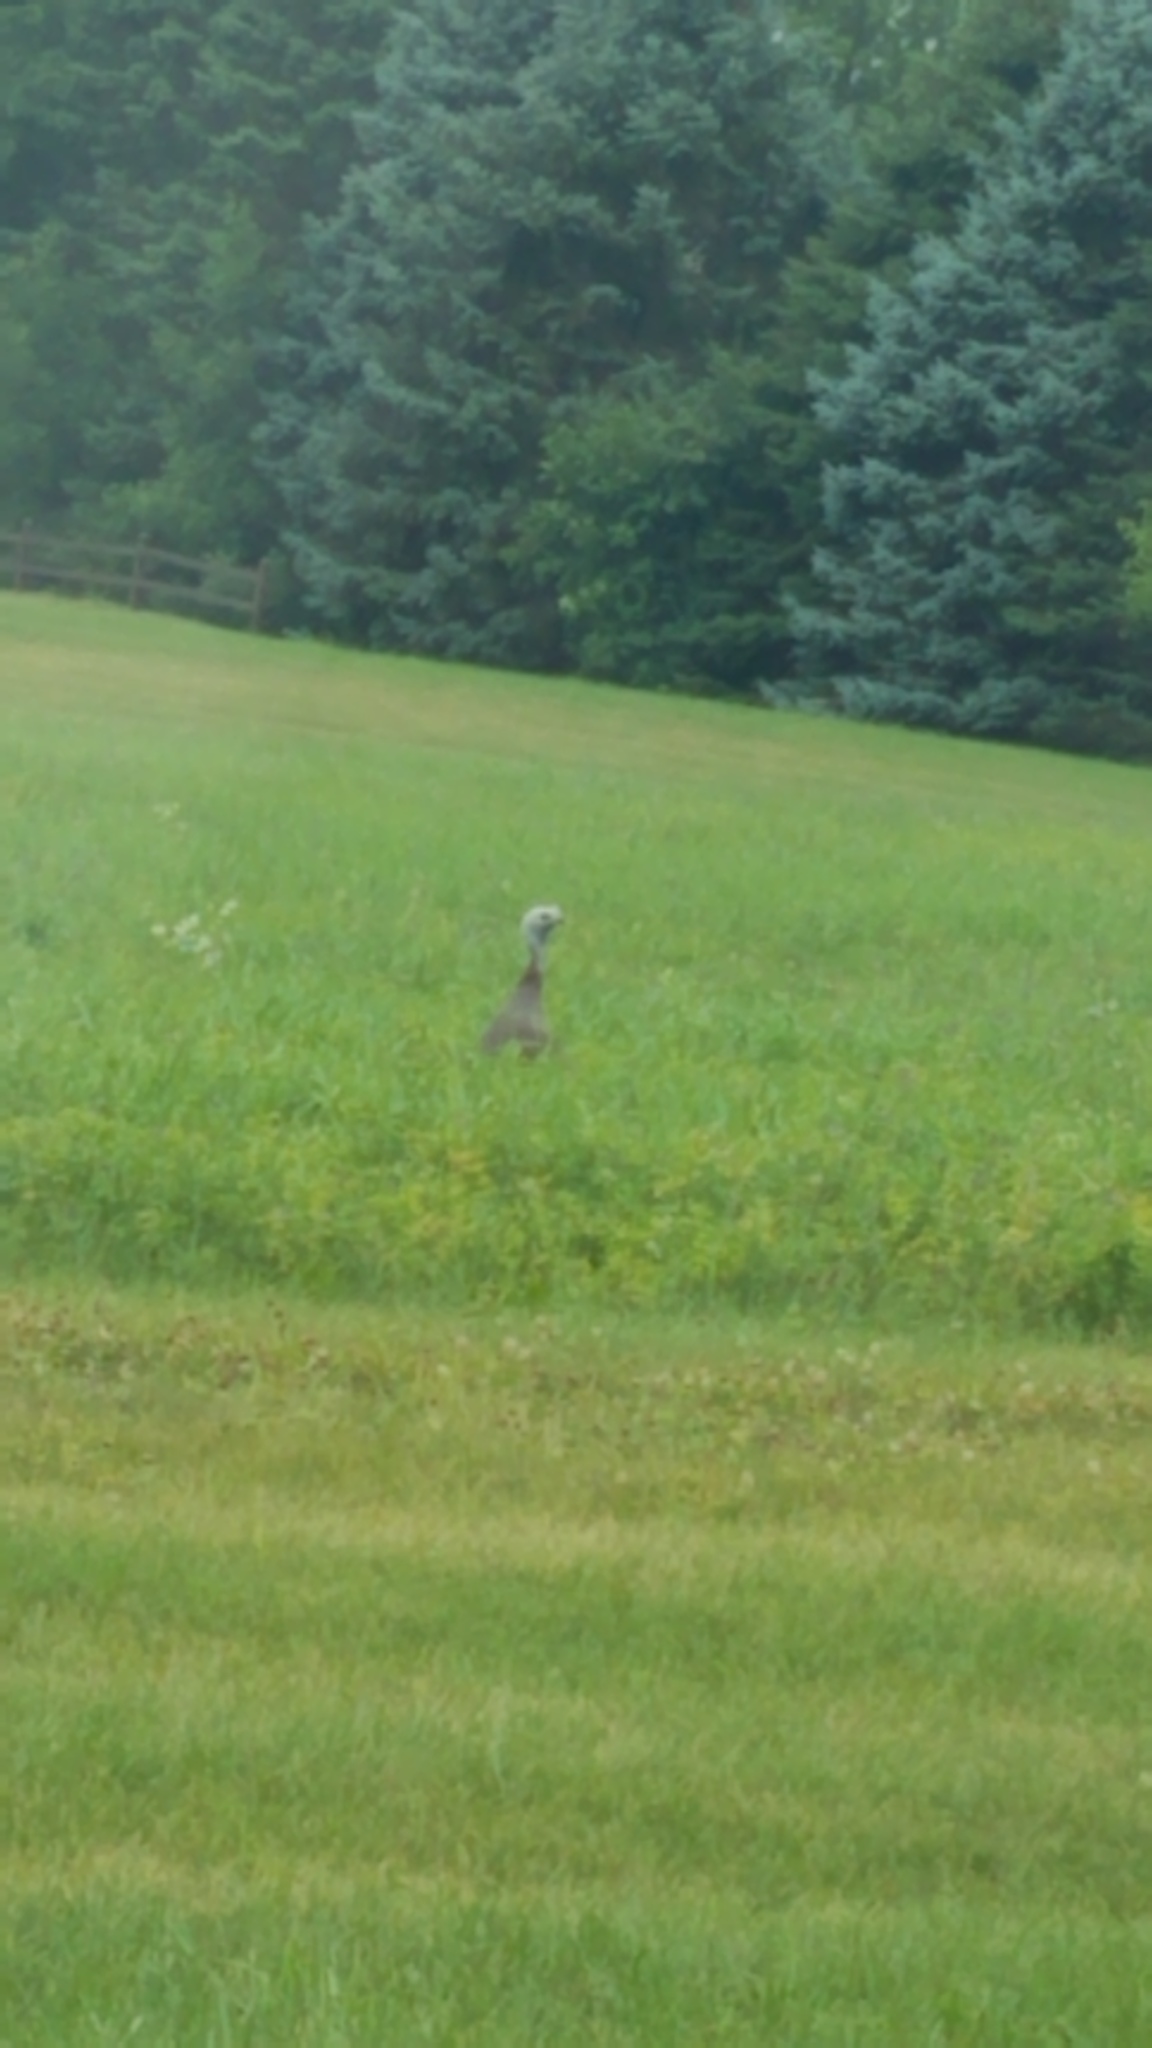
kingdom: Animalia
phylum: Chordata
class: Aves
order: Galliformes
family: Phasianidae
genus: Meleagris
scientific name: Meleagris gallopavo
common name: Wild turkey
